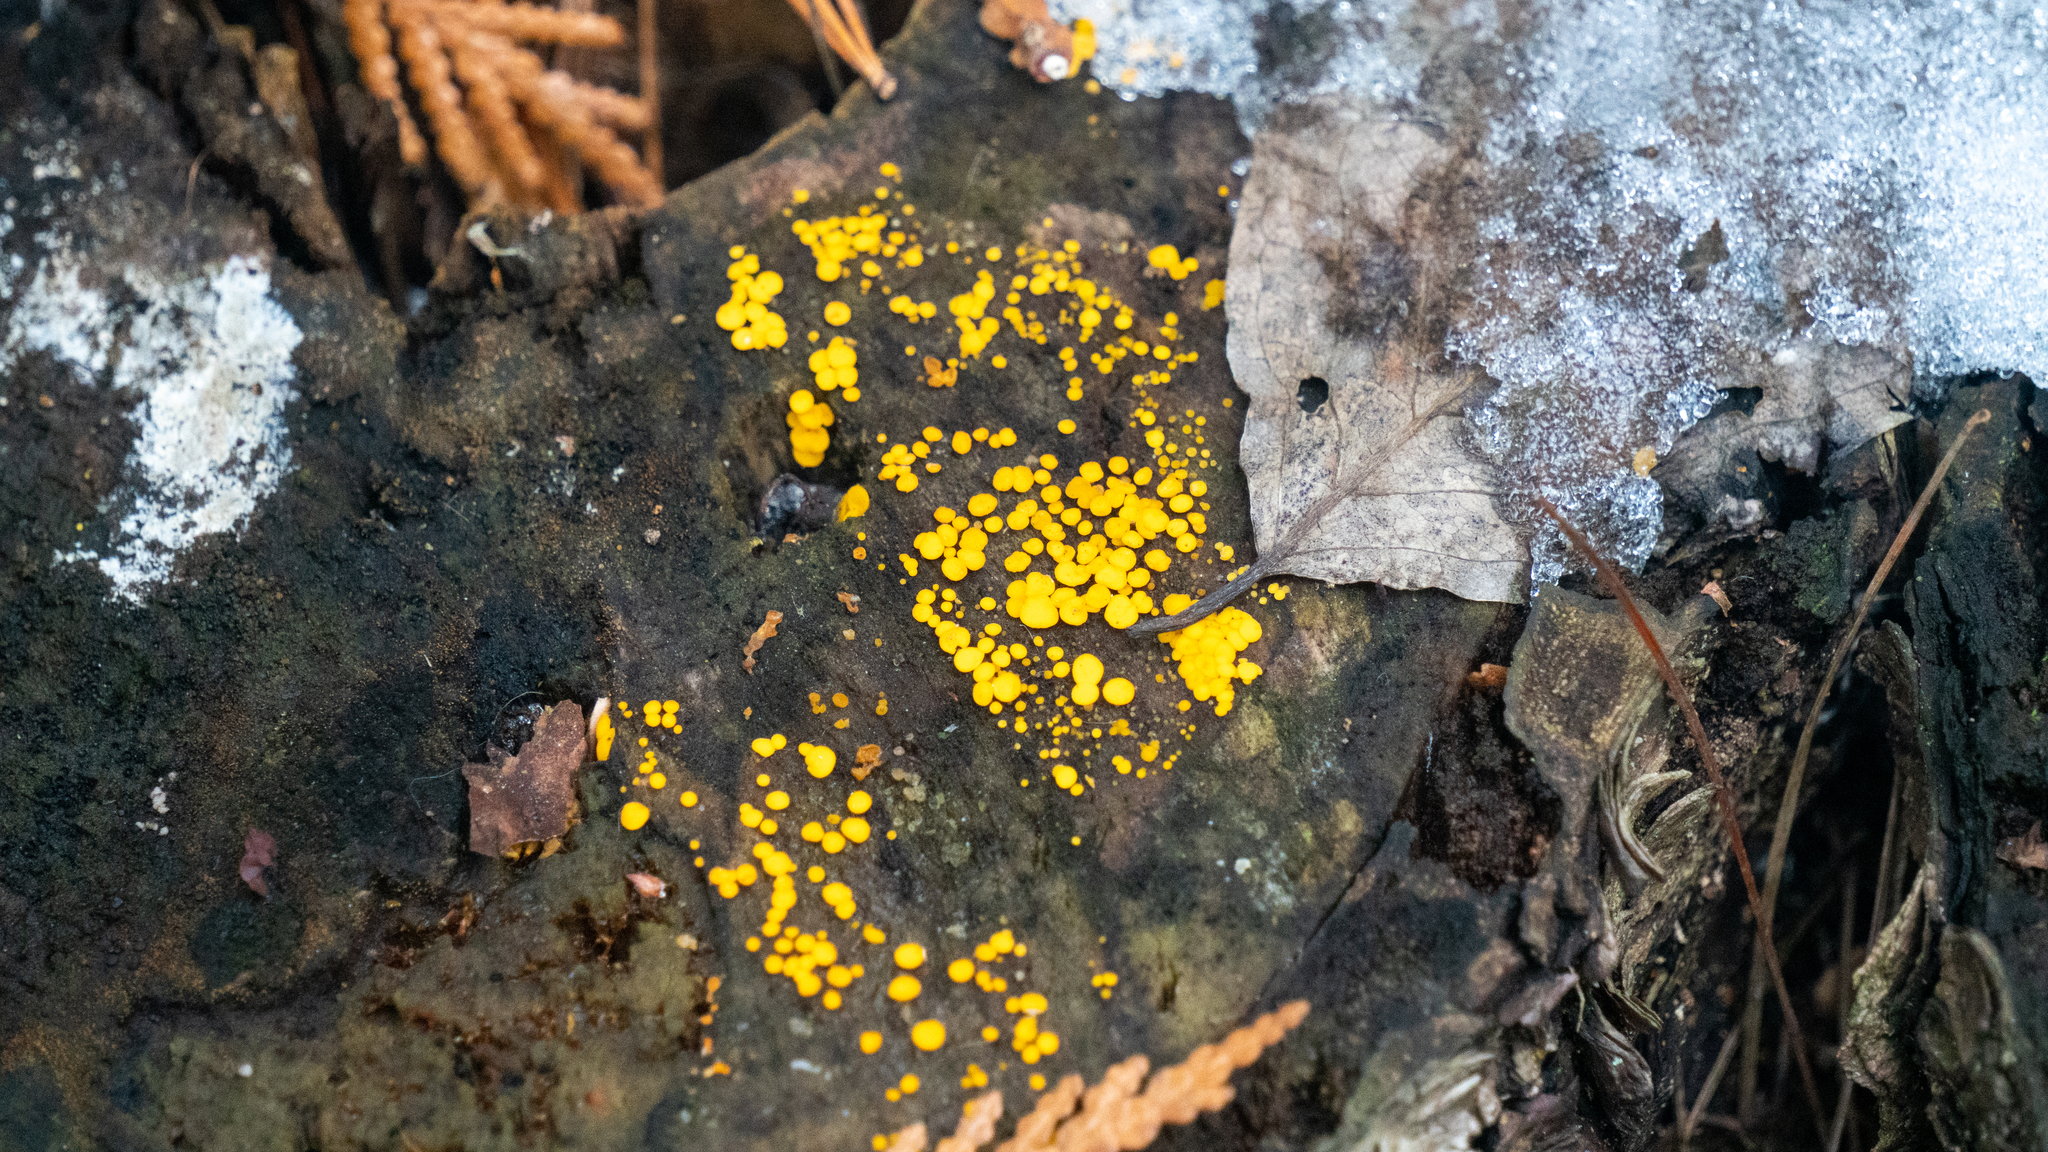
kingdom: Fungi
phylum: Ascomycota
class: Leotiomycetes
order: Helotiales
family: Pezizellaceae
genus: Calycina
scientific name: Calycina citrina
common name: Yellow fairy cups
